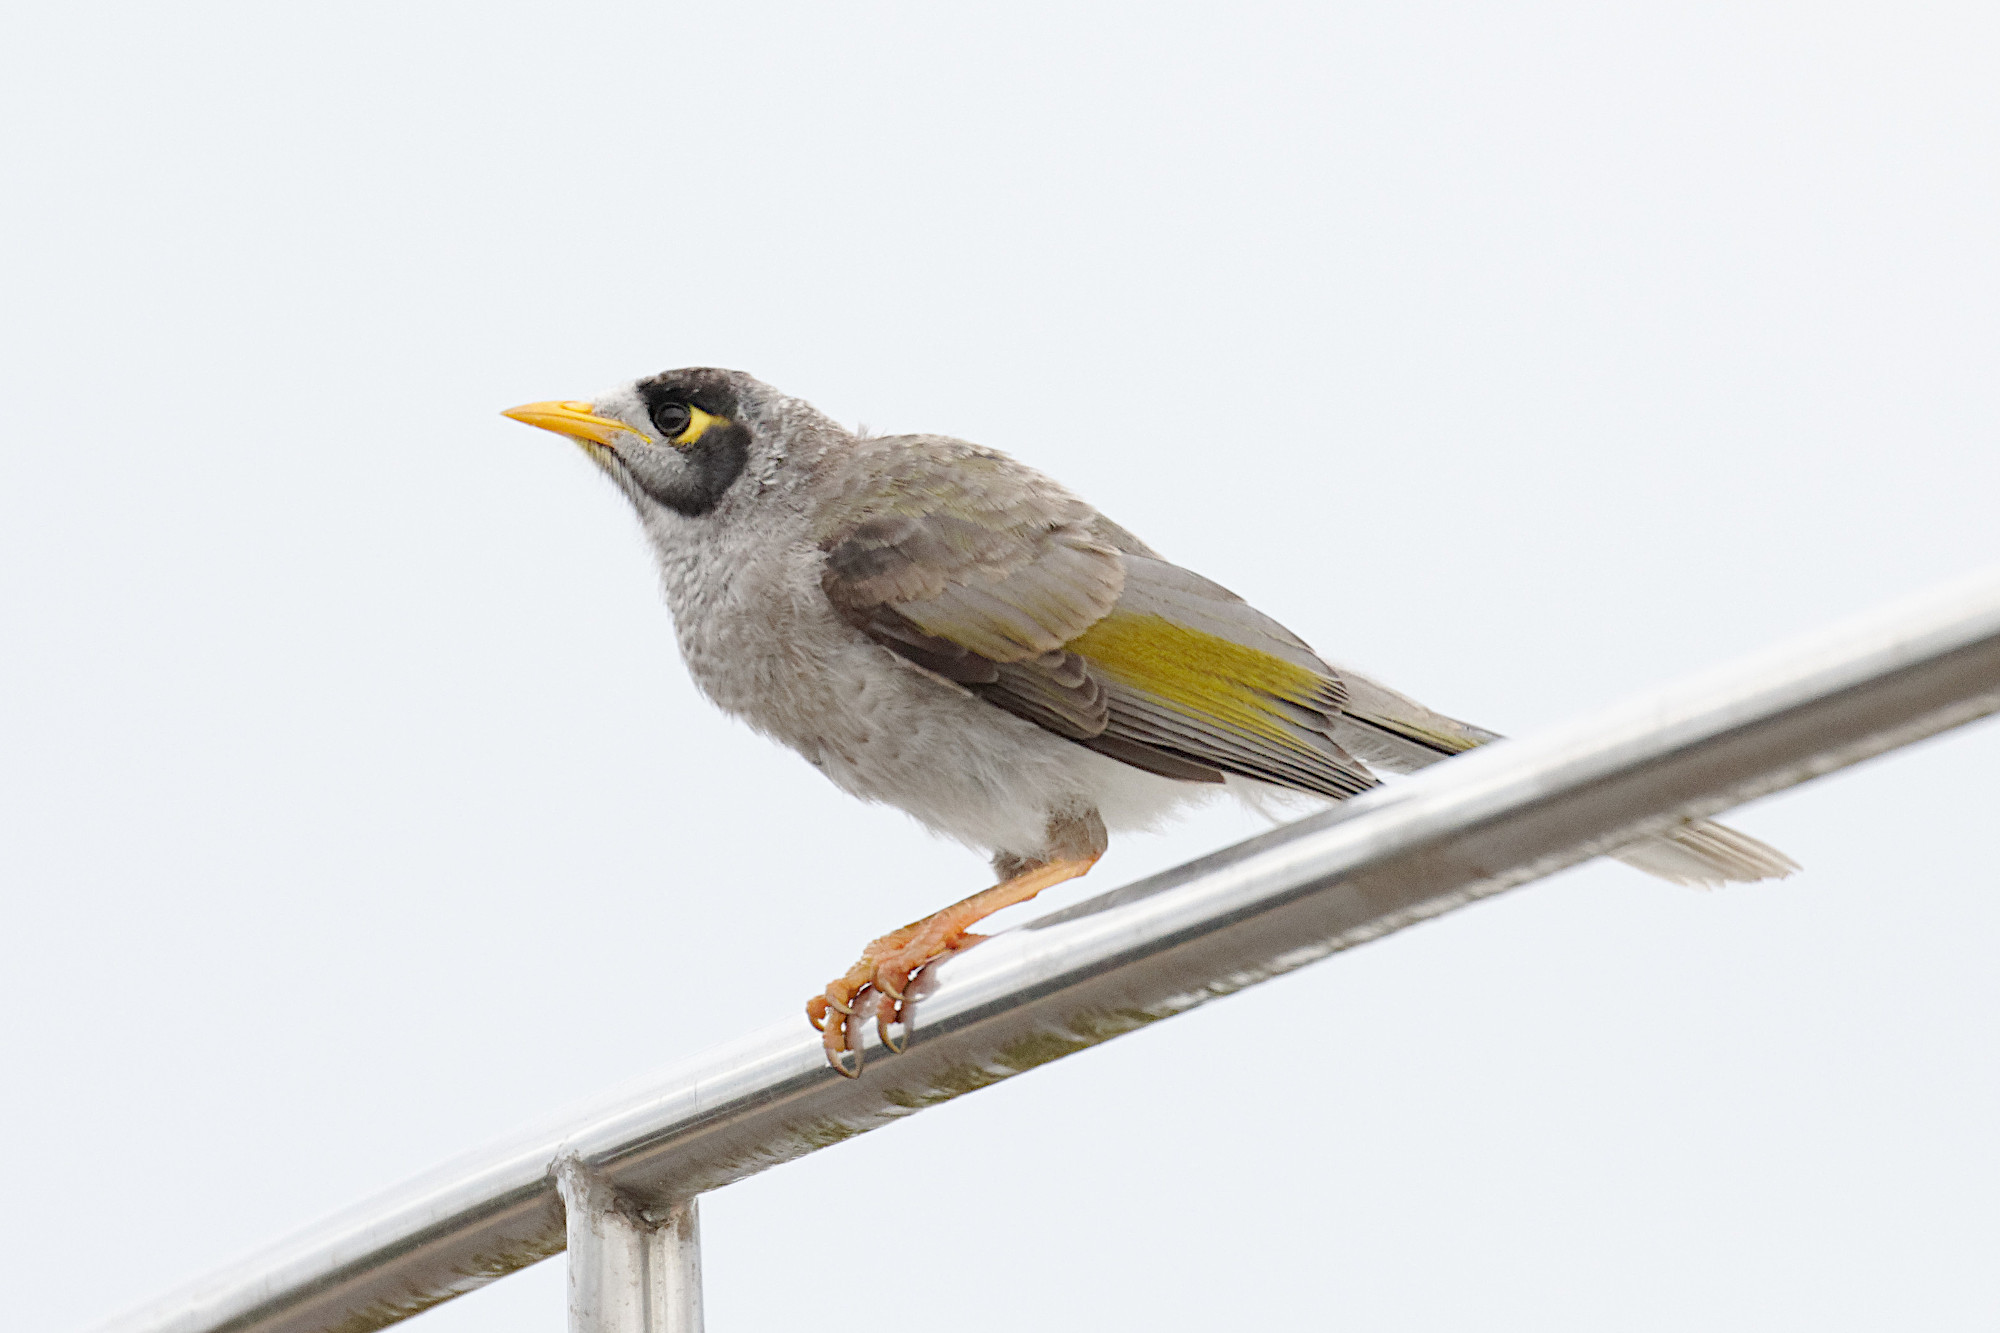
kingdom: Animalia
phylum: Chordata
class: Aves
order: Passeriformes
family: Meliphagidae
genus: Manorina
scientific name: Manorina melanocephala
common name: Noisy miner
